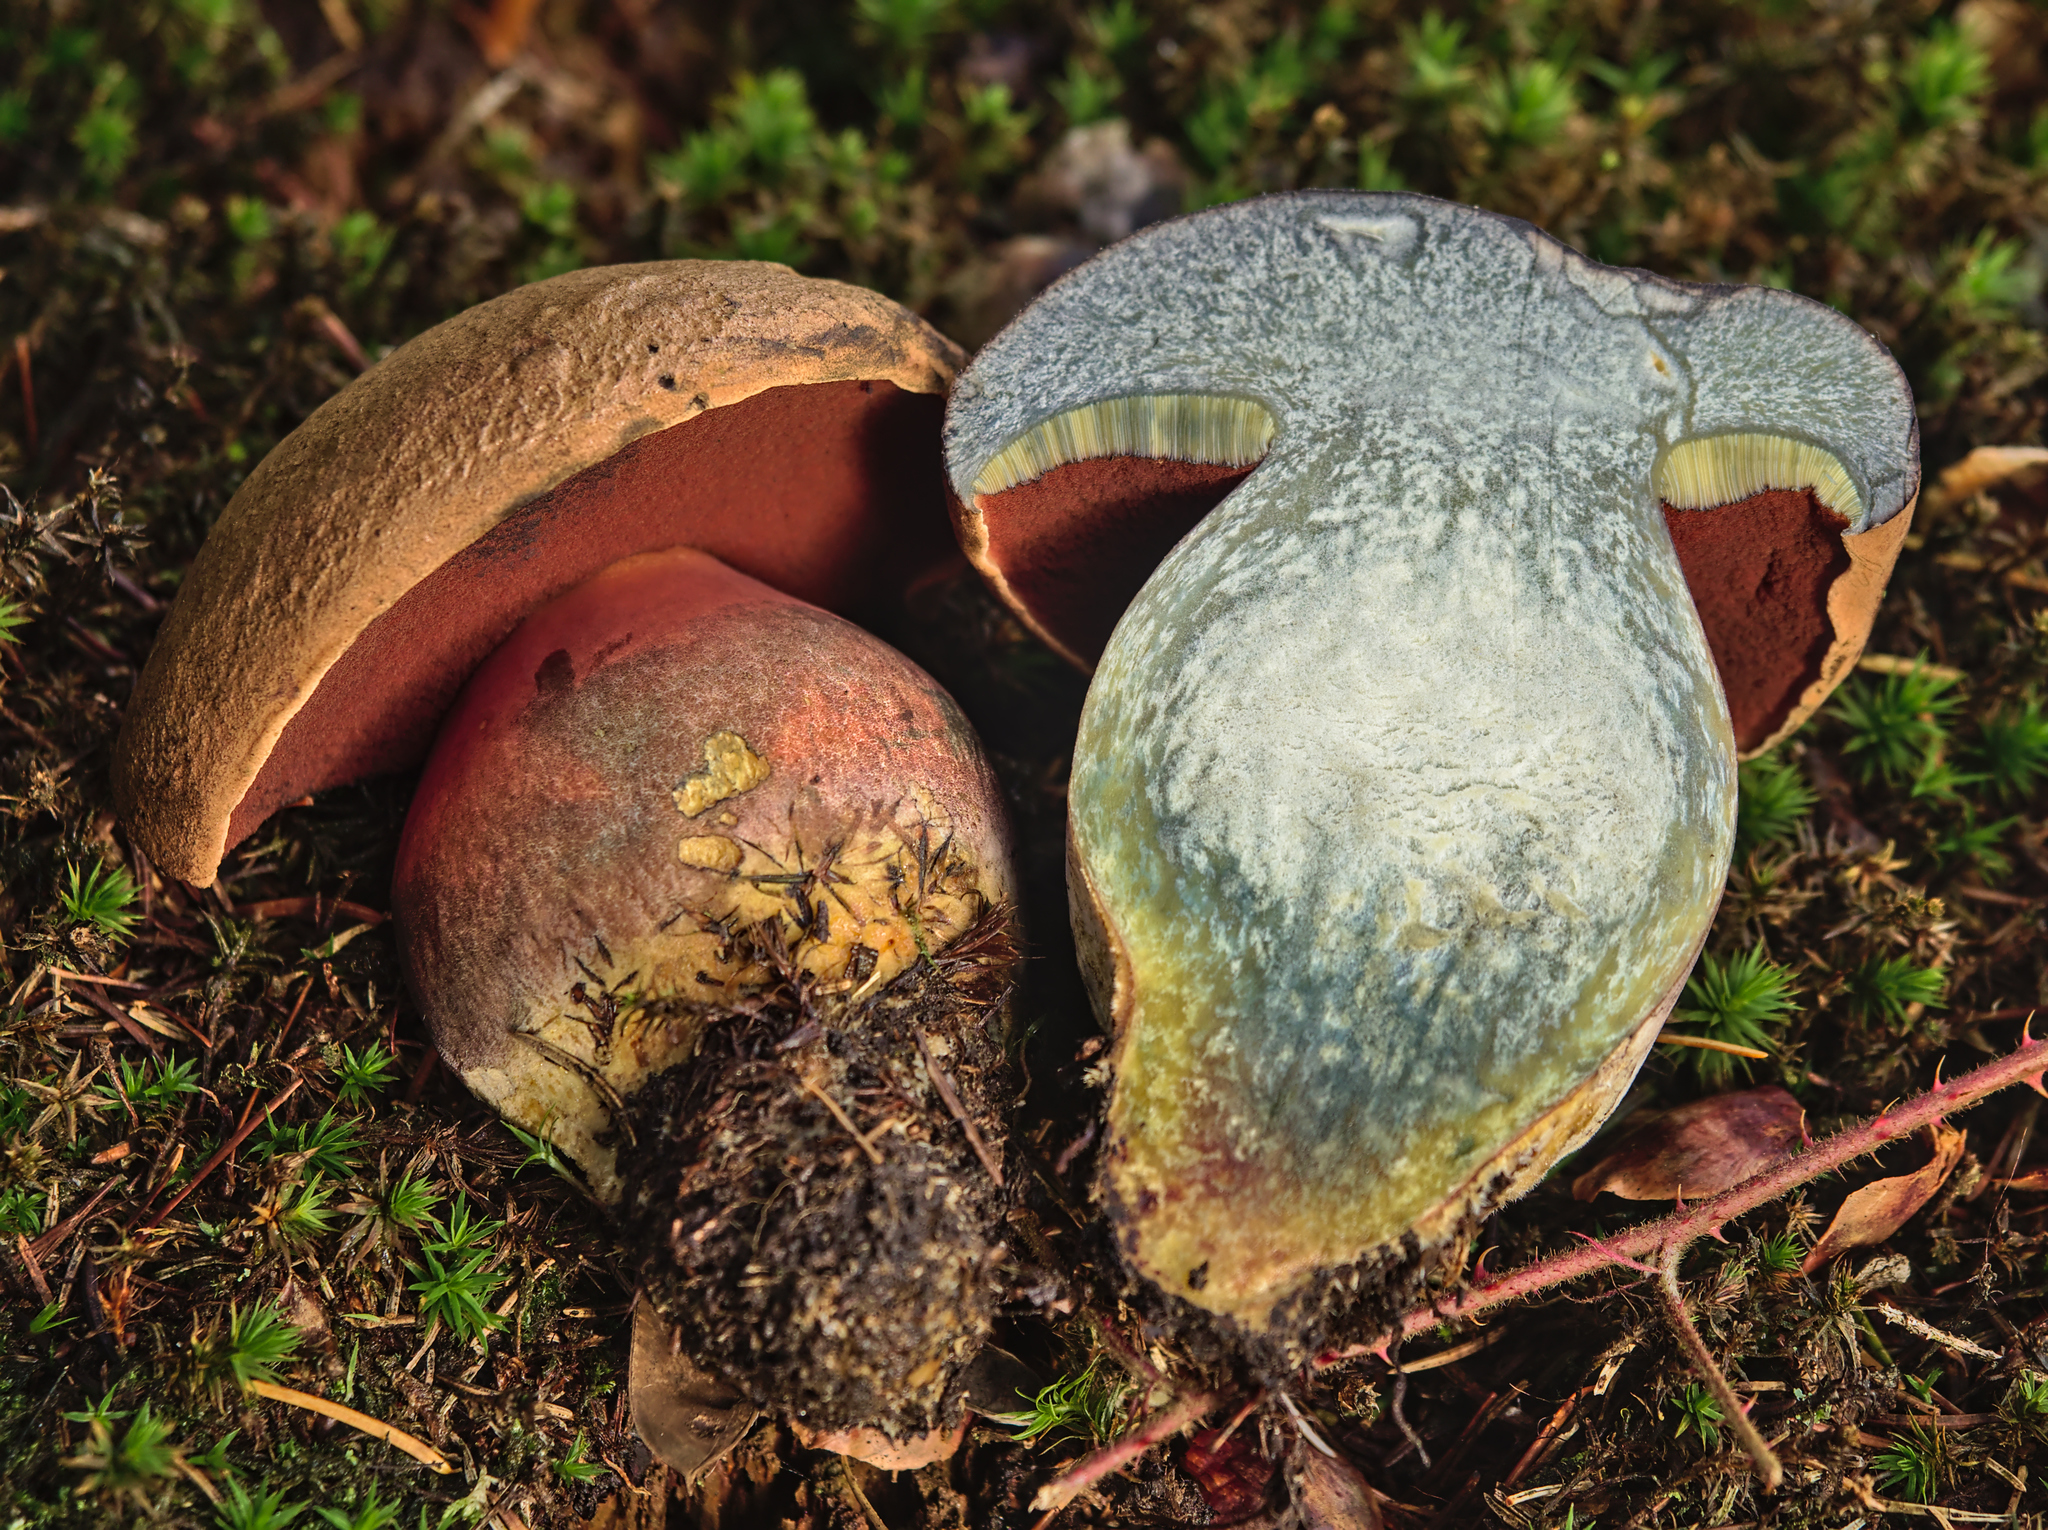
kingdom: Fungi
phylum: Basidiomycota
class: Agaricomycetes
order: Boletales
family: Boletaceae
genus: Neoboletus
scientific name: Neoboletus erythropus
